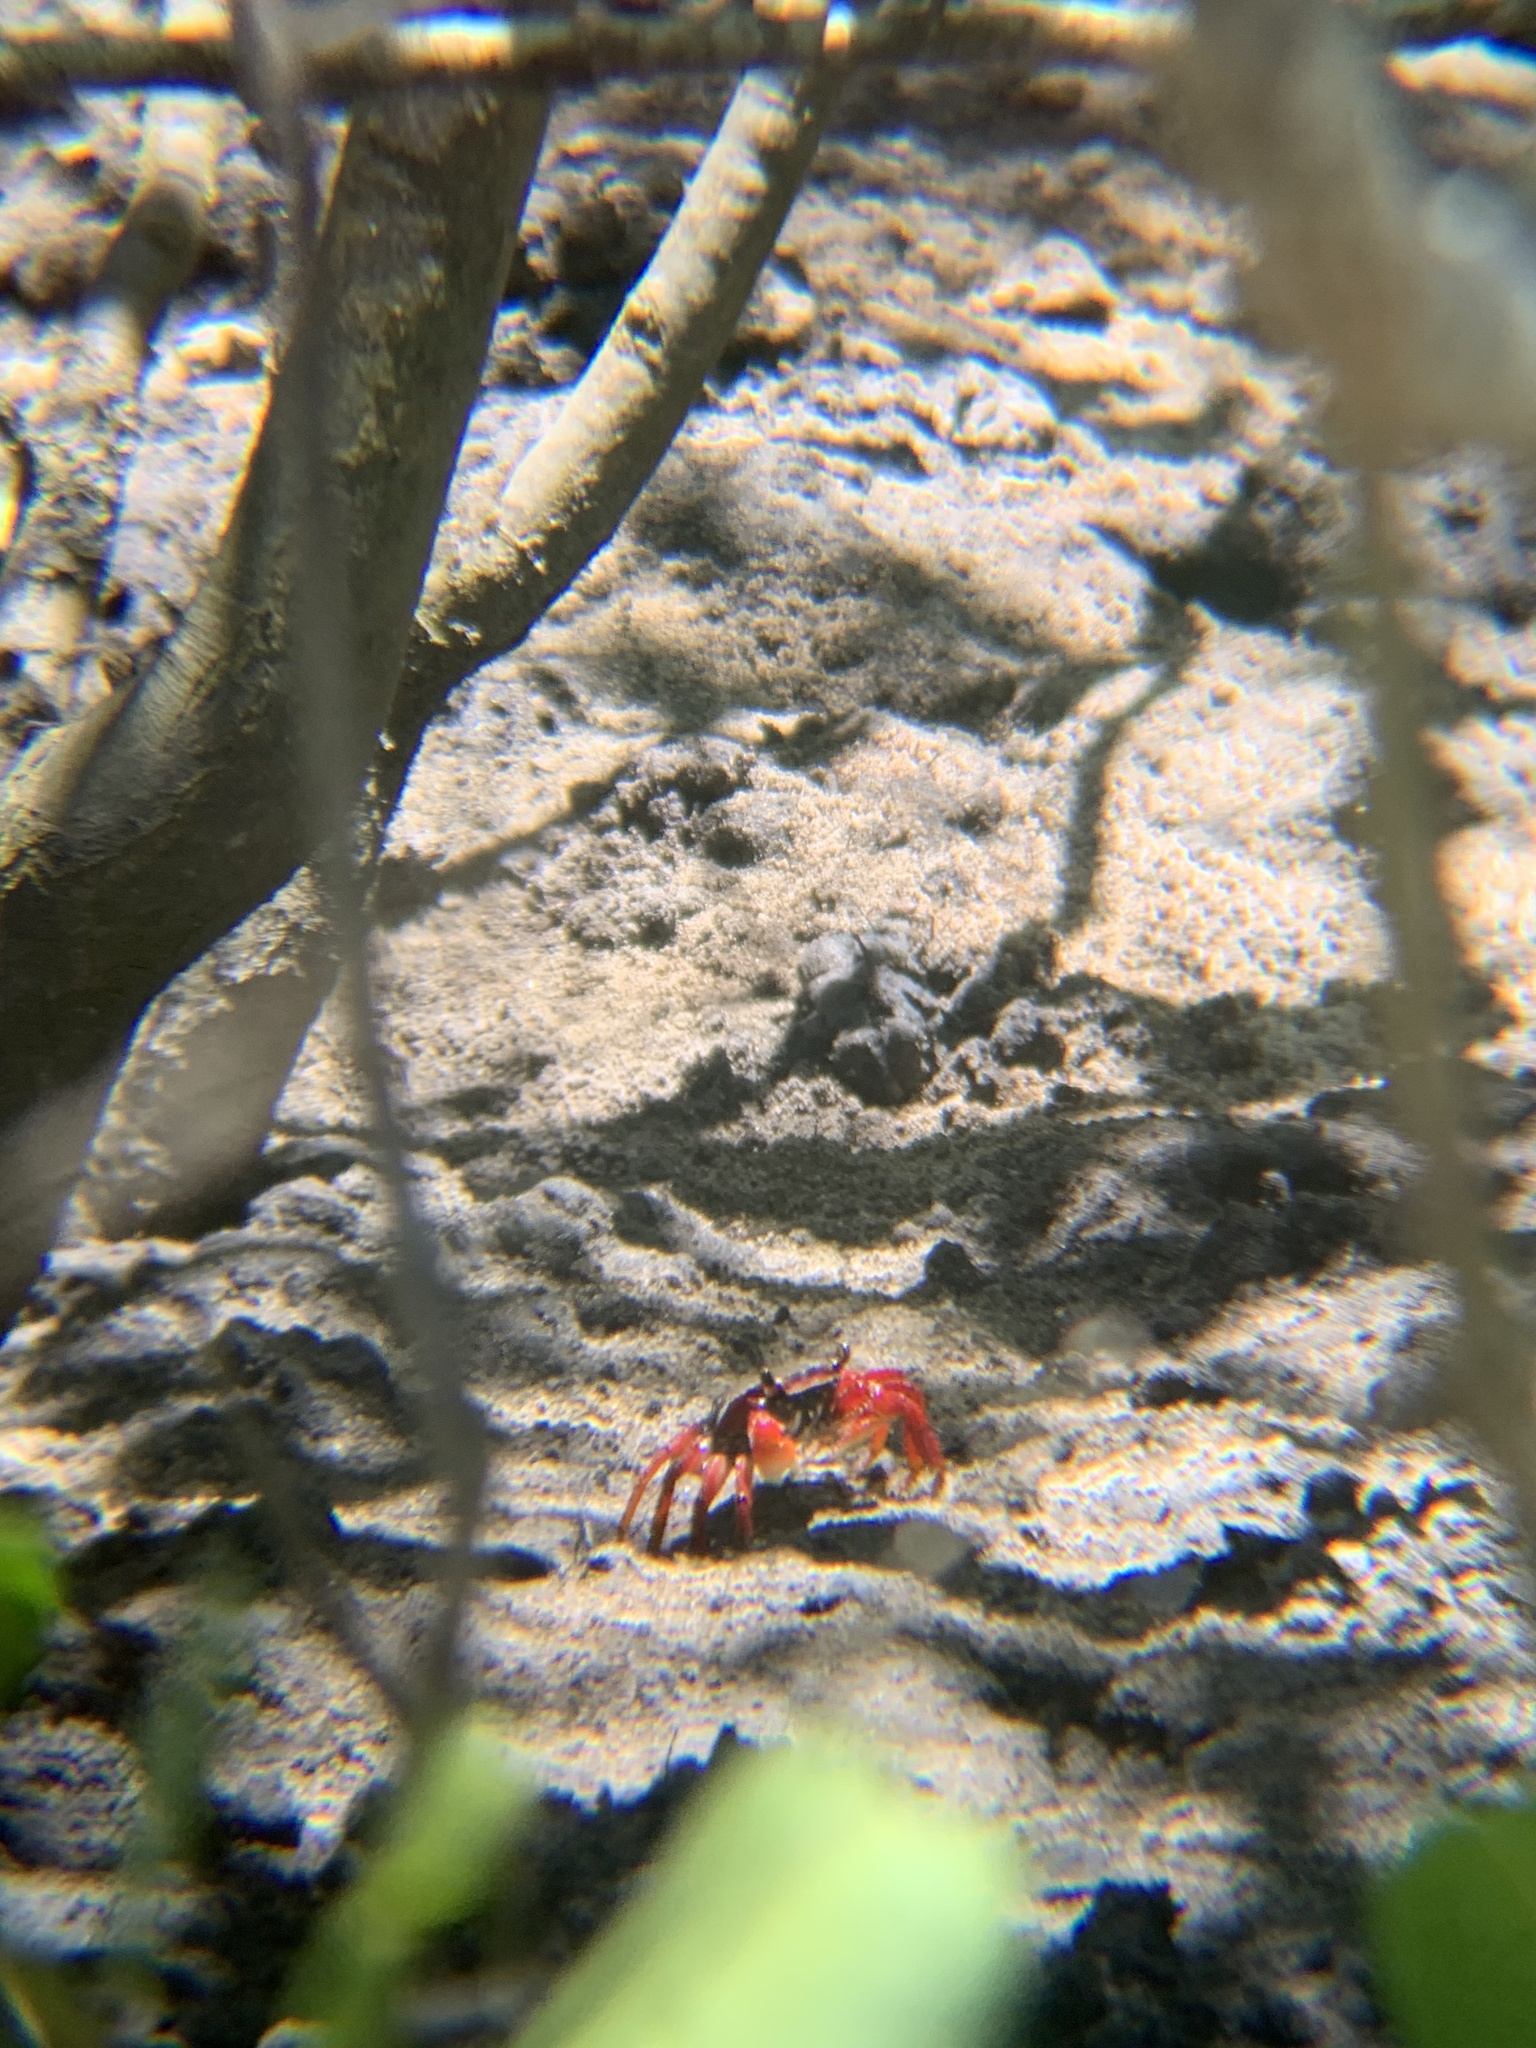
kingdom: Animalia
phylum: Arthropoda
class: Malacostraca
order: Decapoda
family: Grapsidae
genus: Goniopsis
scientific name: Goniopsis cruentata
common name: Mangrove crab
